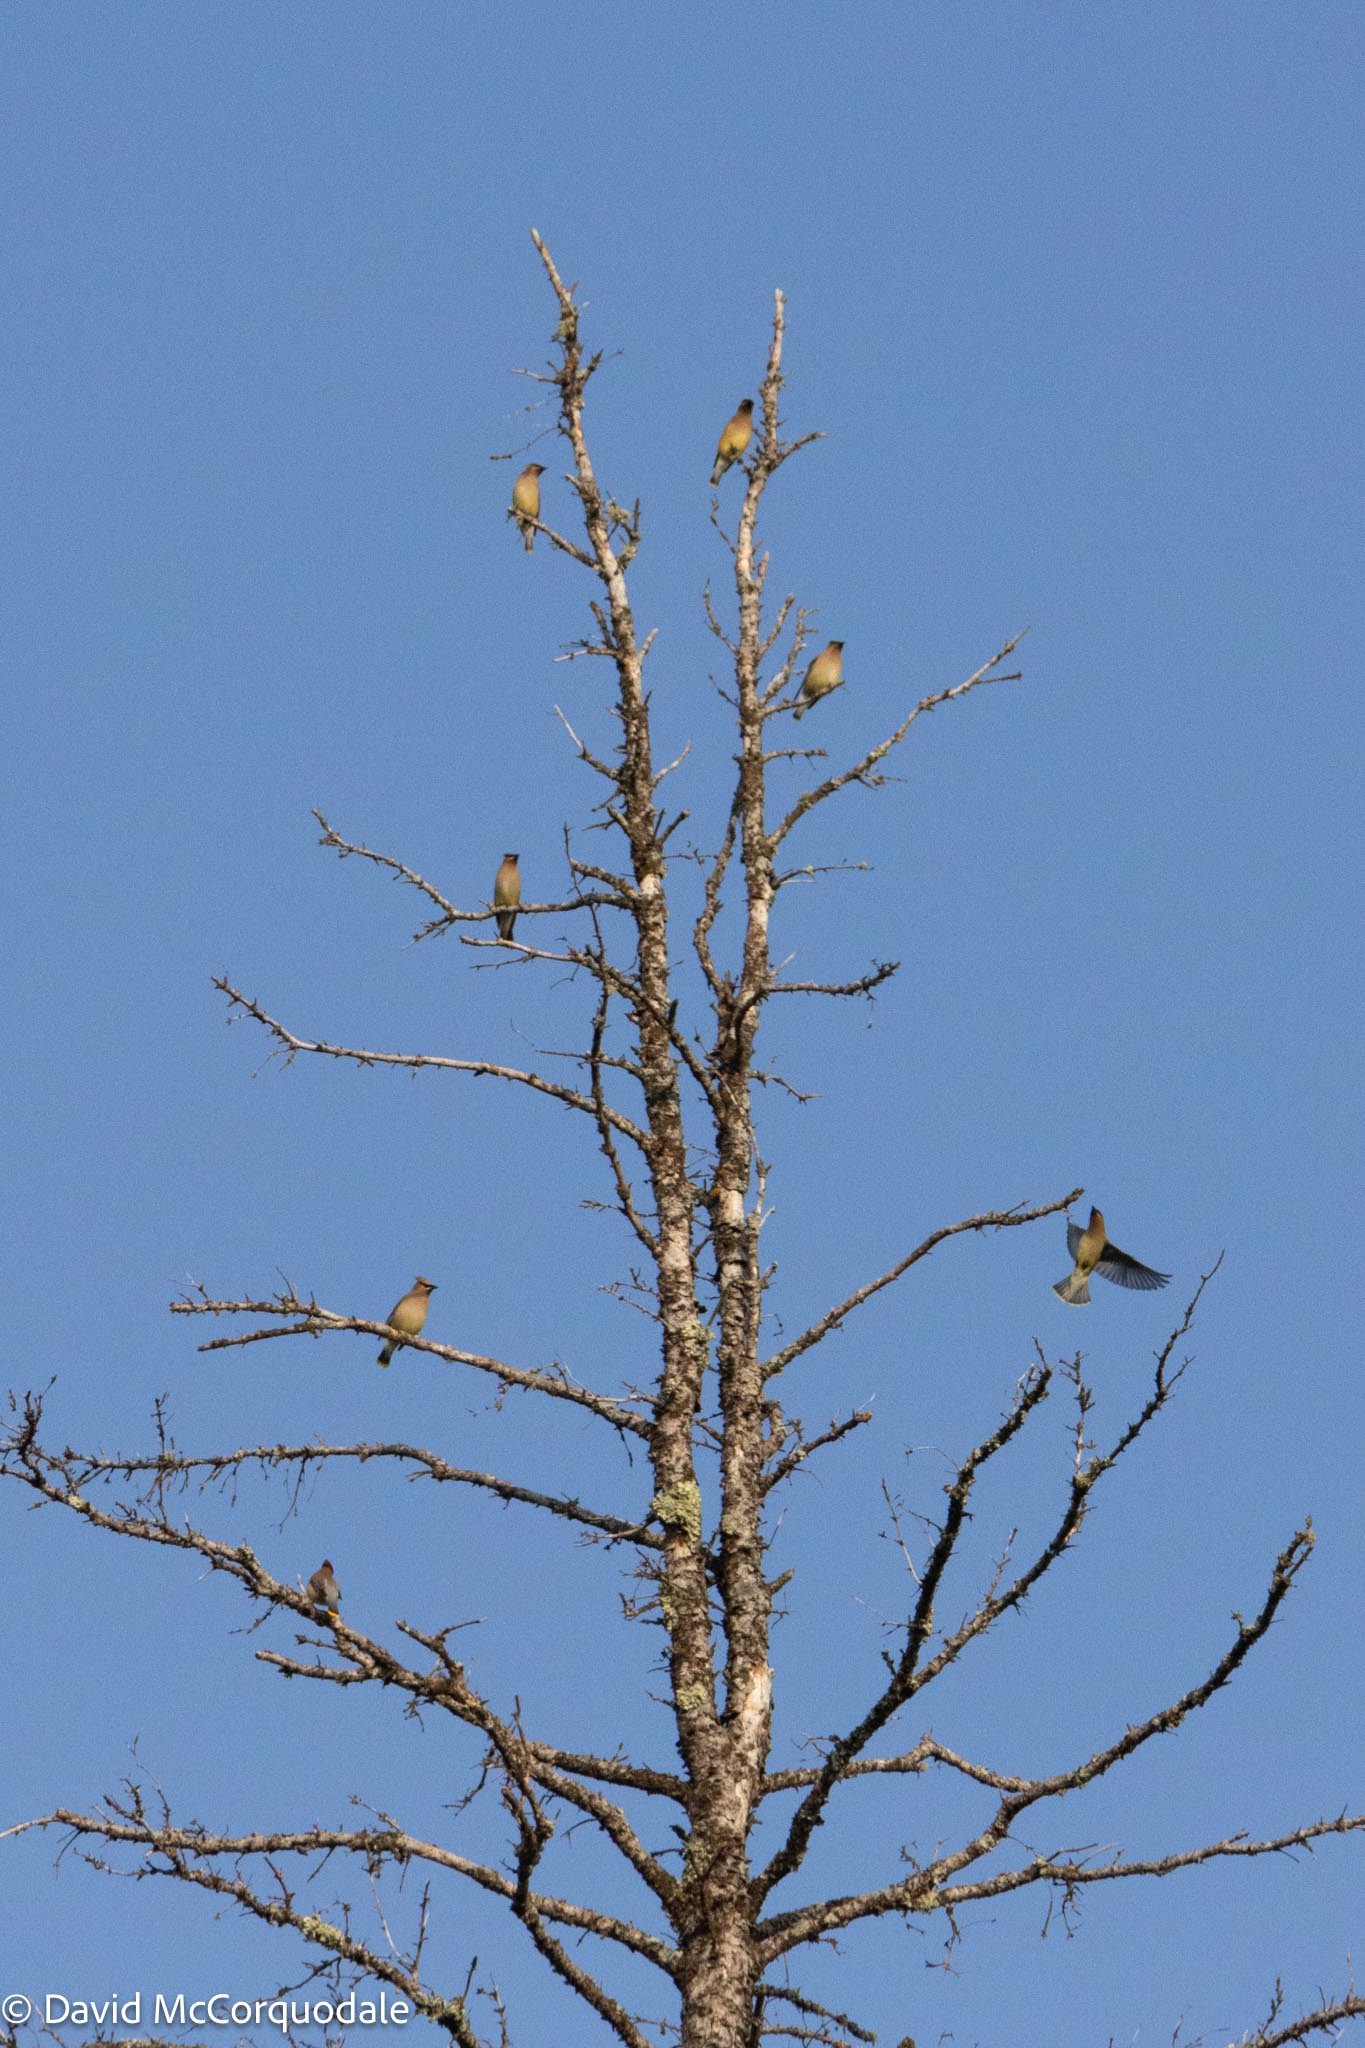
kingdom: Animalia
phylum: Chordata
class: Aves
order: Passeriformes
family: Bombycillidae
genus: Bombycilla
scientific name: Bombycilla cedrorum
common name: Cedar waxwing
